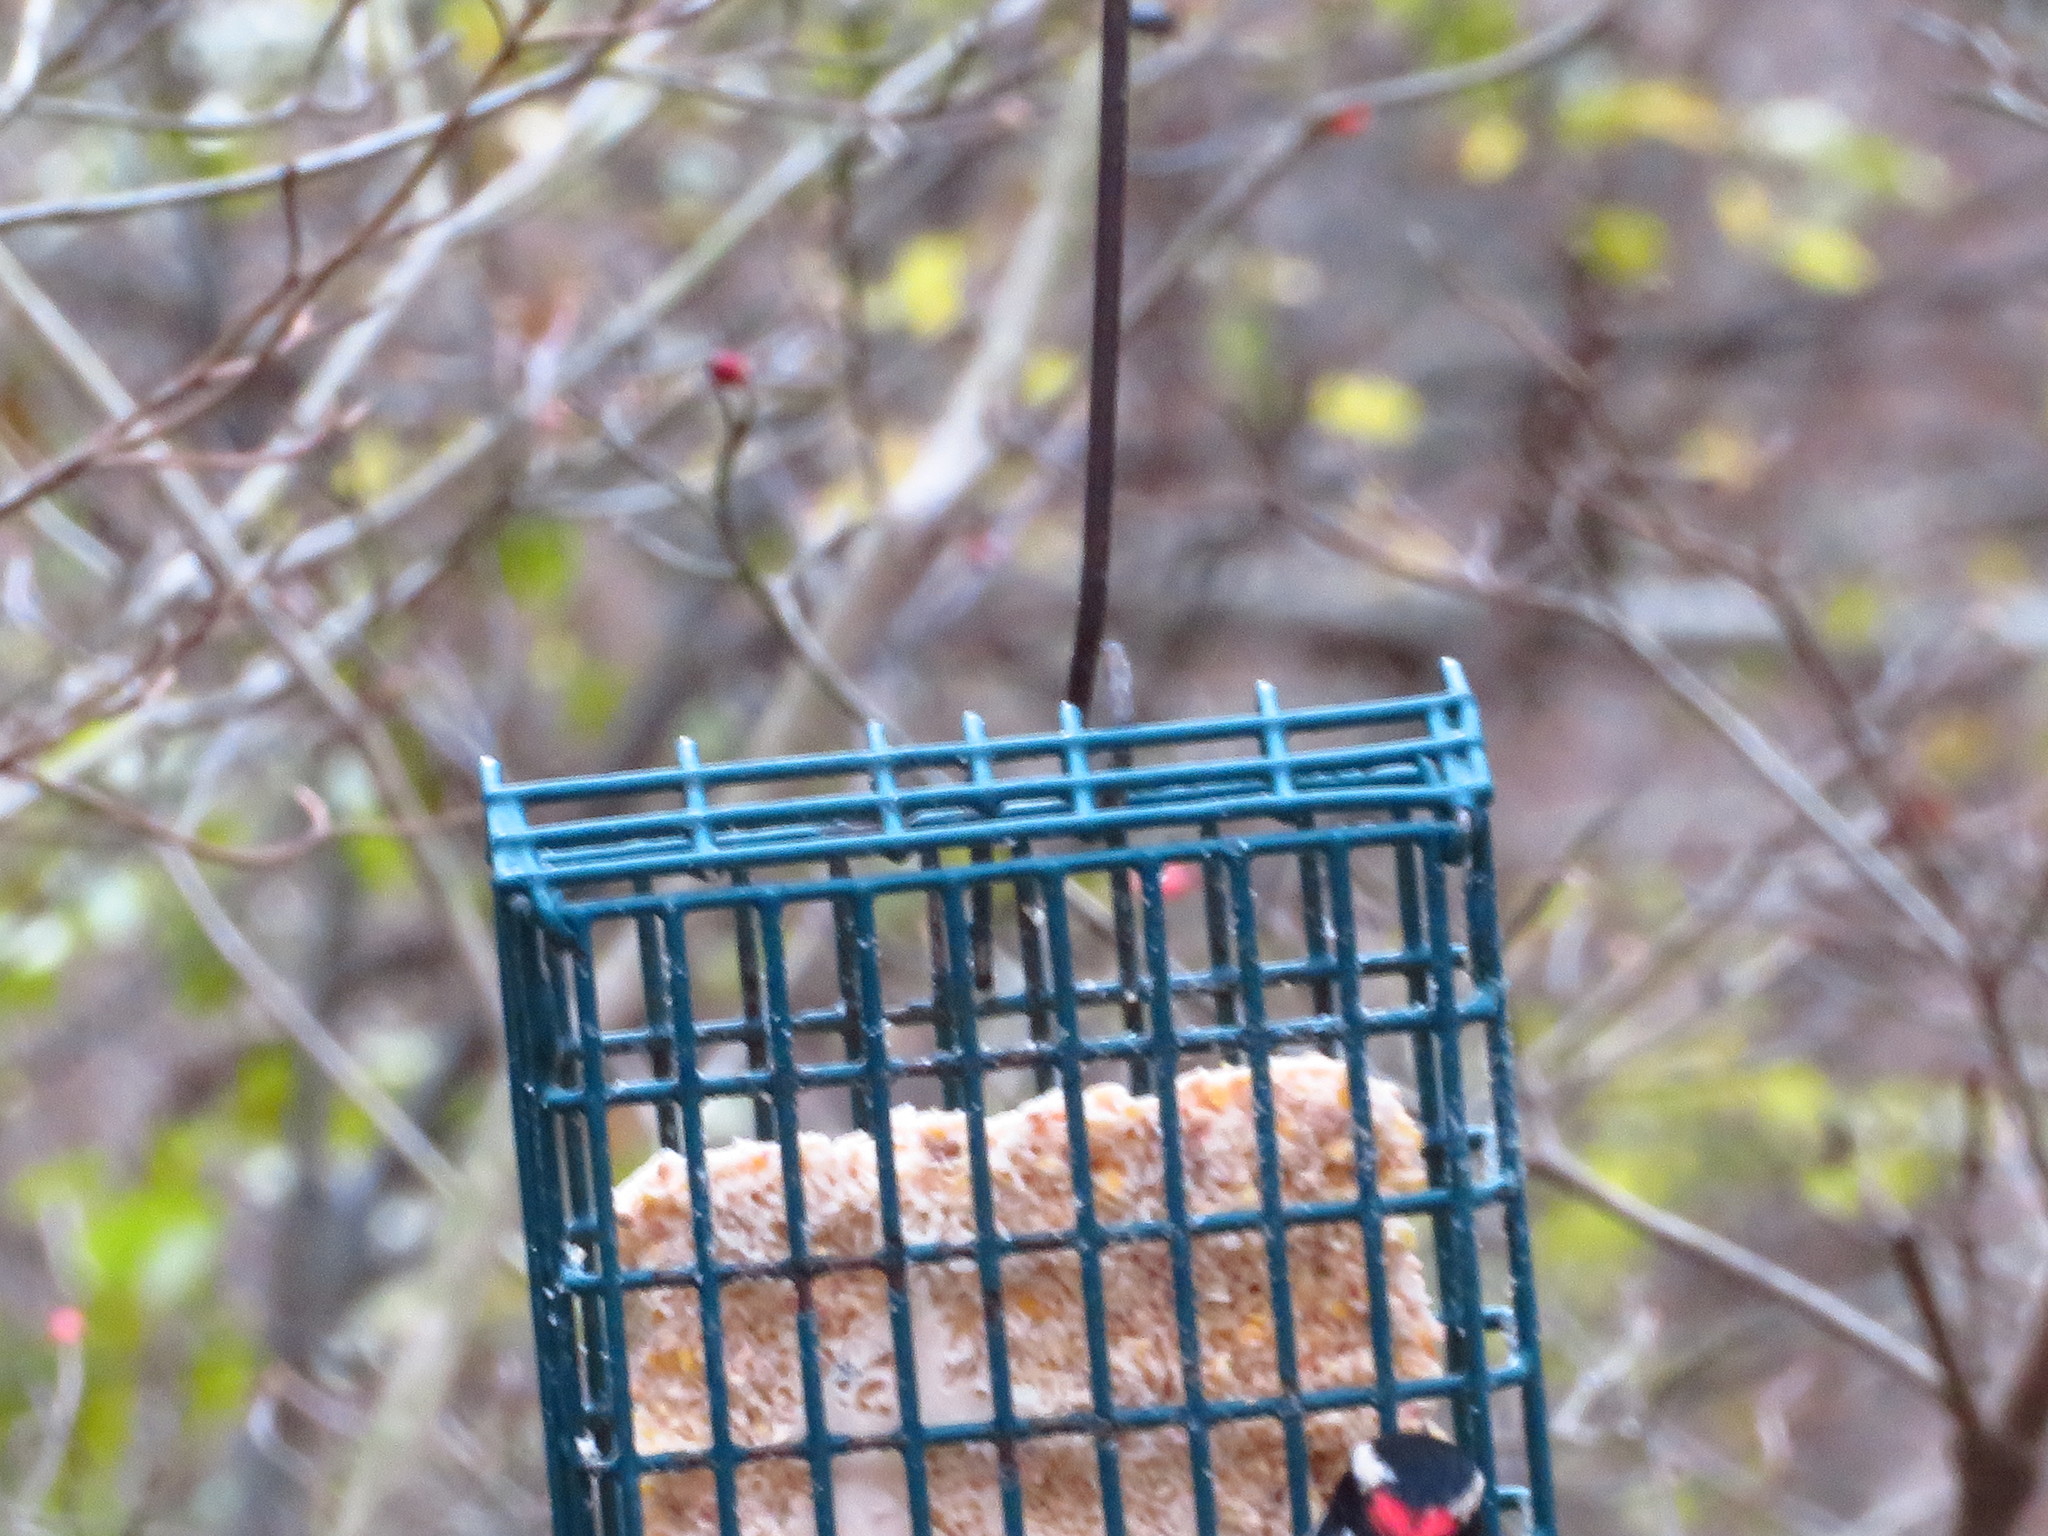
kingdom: Animalia
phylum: Chordata
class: Aves
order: Piciformes
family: Picidae
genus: Dryobates
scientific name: Dryobates pubescens
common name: Downy woodpecker
